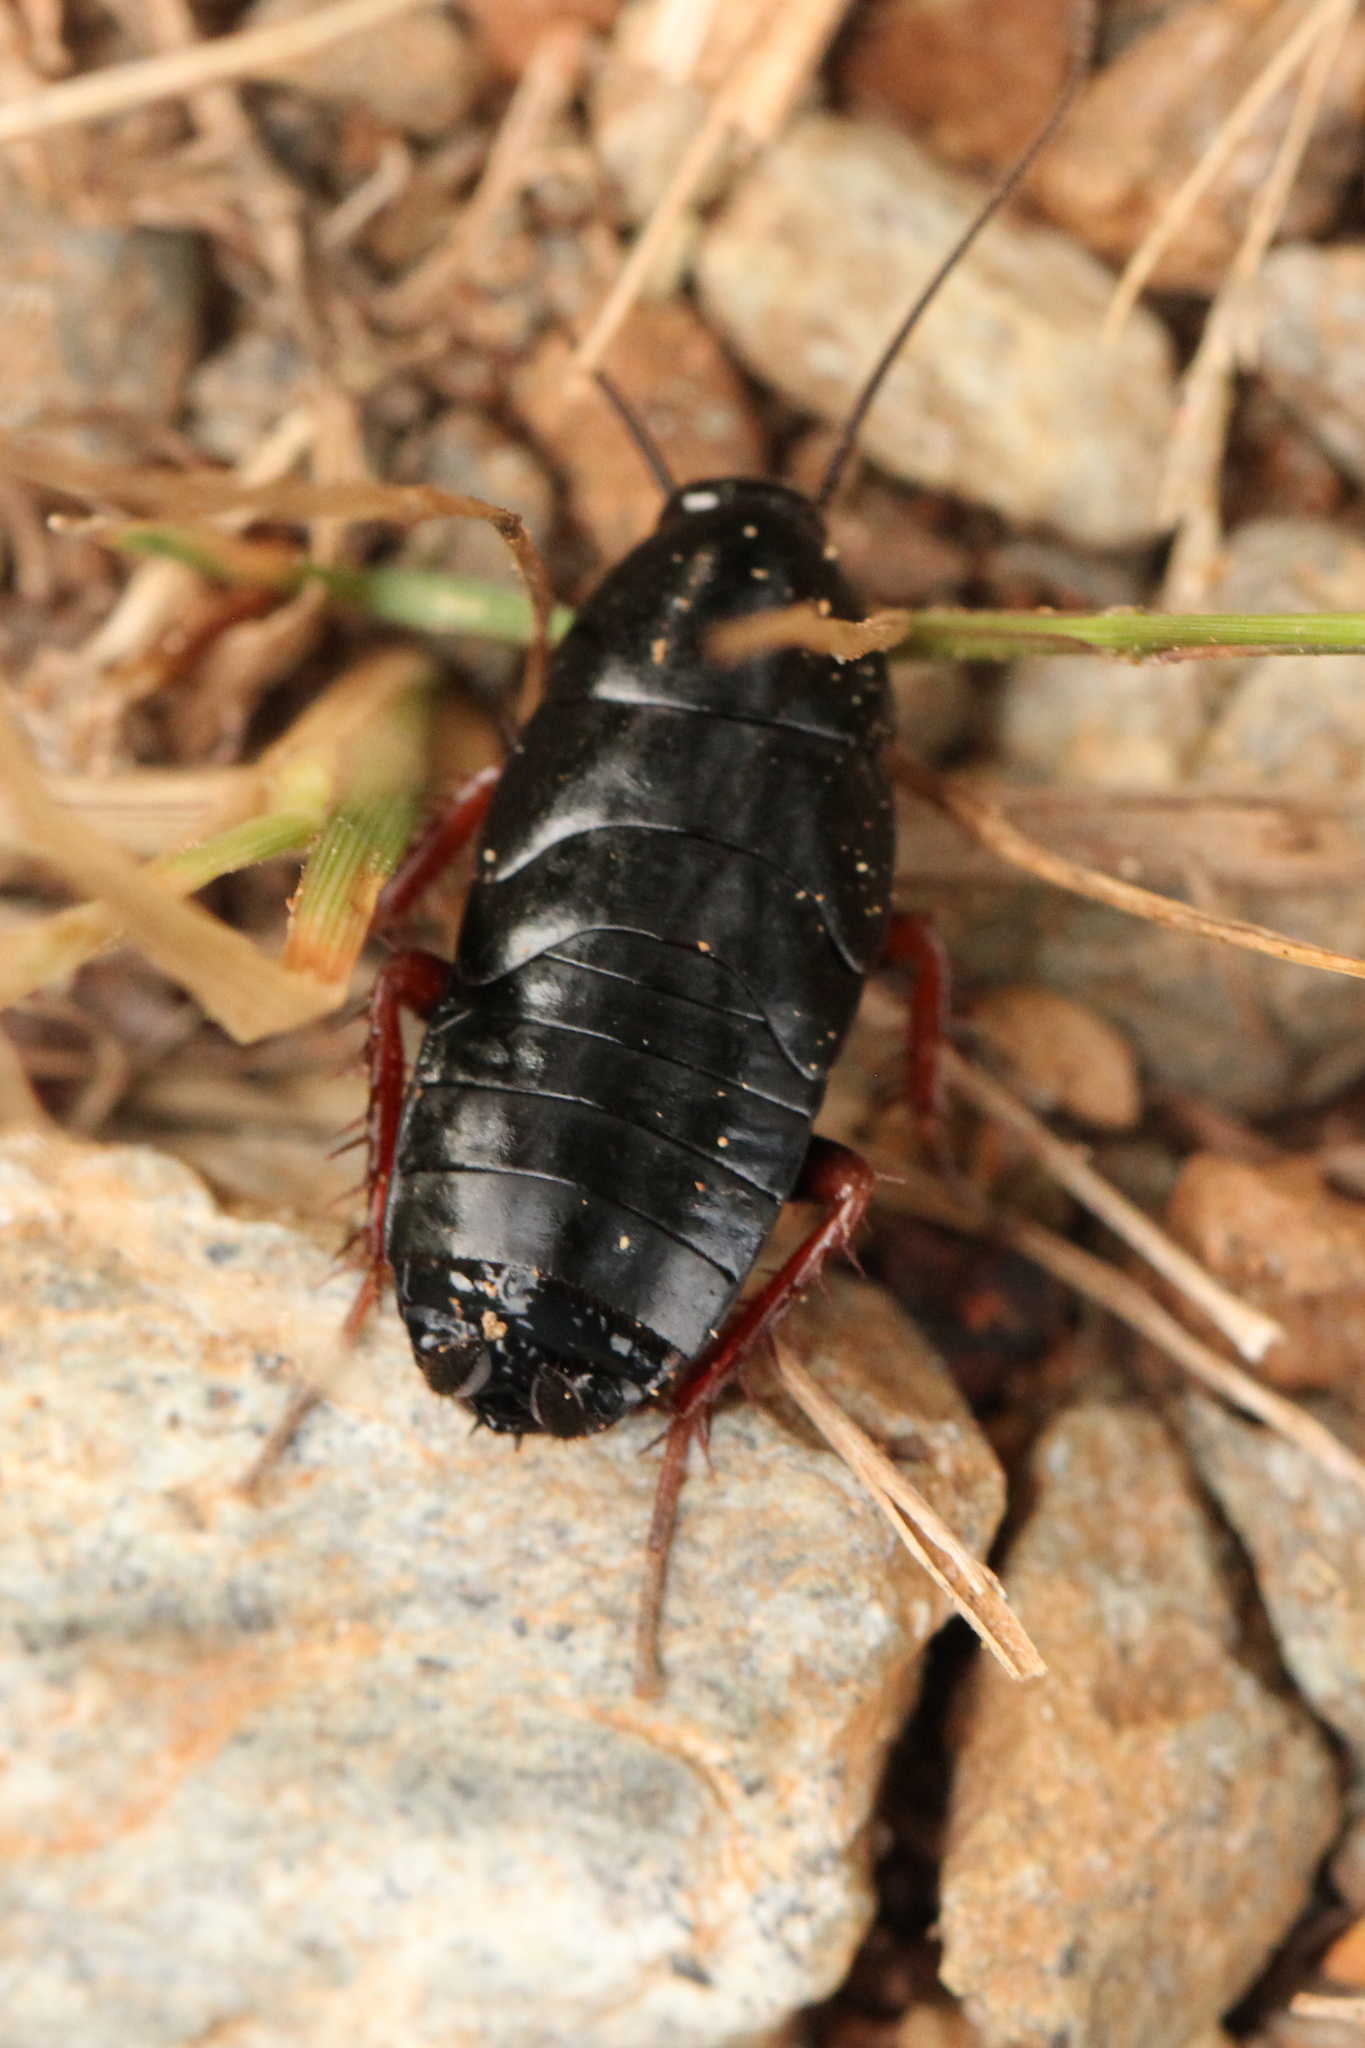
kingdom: Animalia
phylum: Arthropoda
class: Insecta
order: Blattodea
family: Ectobiidae
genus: Ischnoptera
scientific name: Ischnoptera deropeltiformis
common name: Dark wood cockroach
